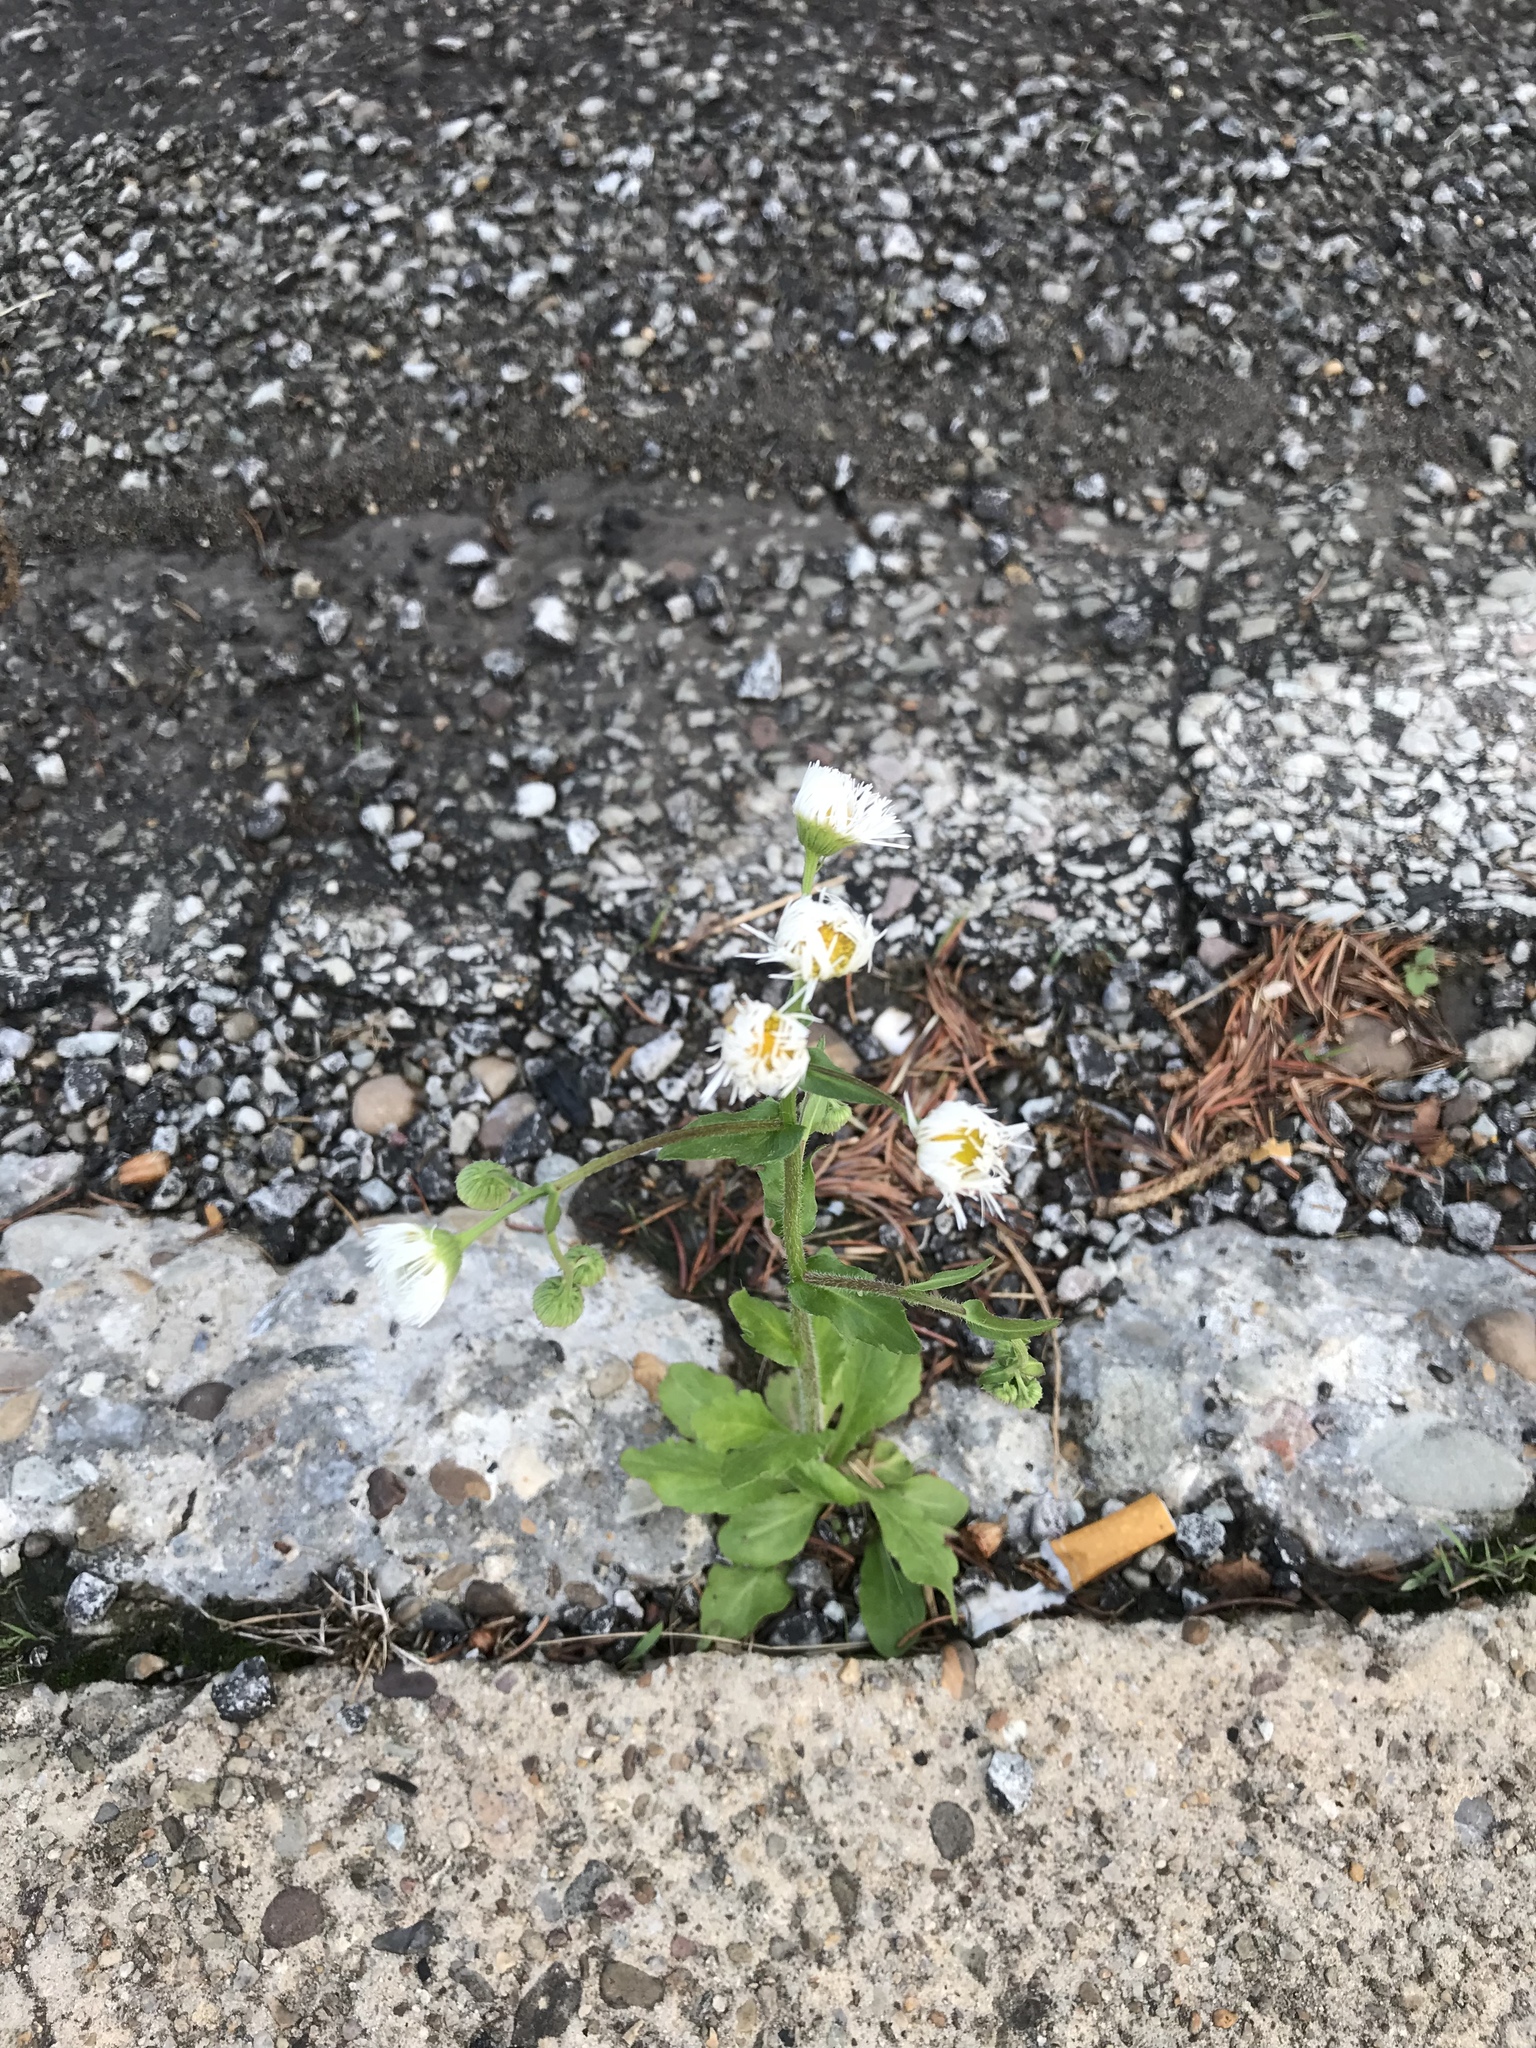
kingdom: Plantae
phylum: Tracheophyta
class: Magnoliopsida
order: Asterales
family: Asteraceae
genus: Erigeron
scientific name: Erigeron philadelphicus
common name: Robin's-plantain
